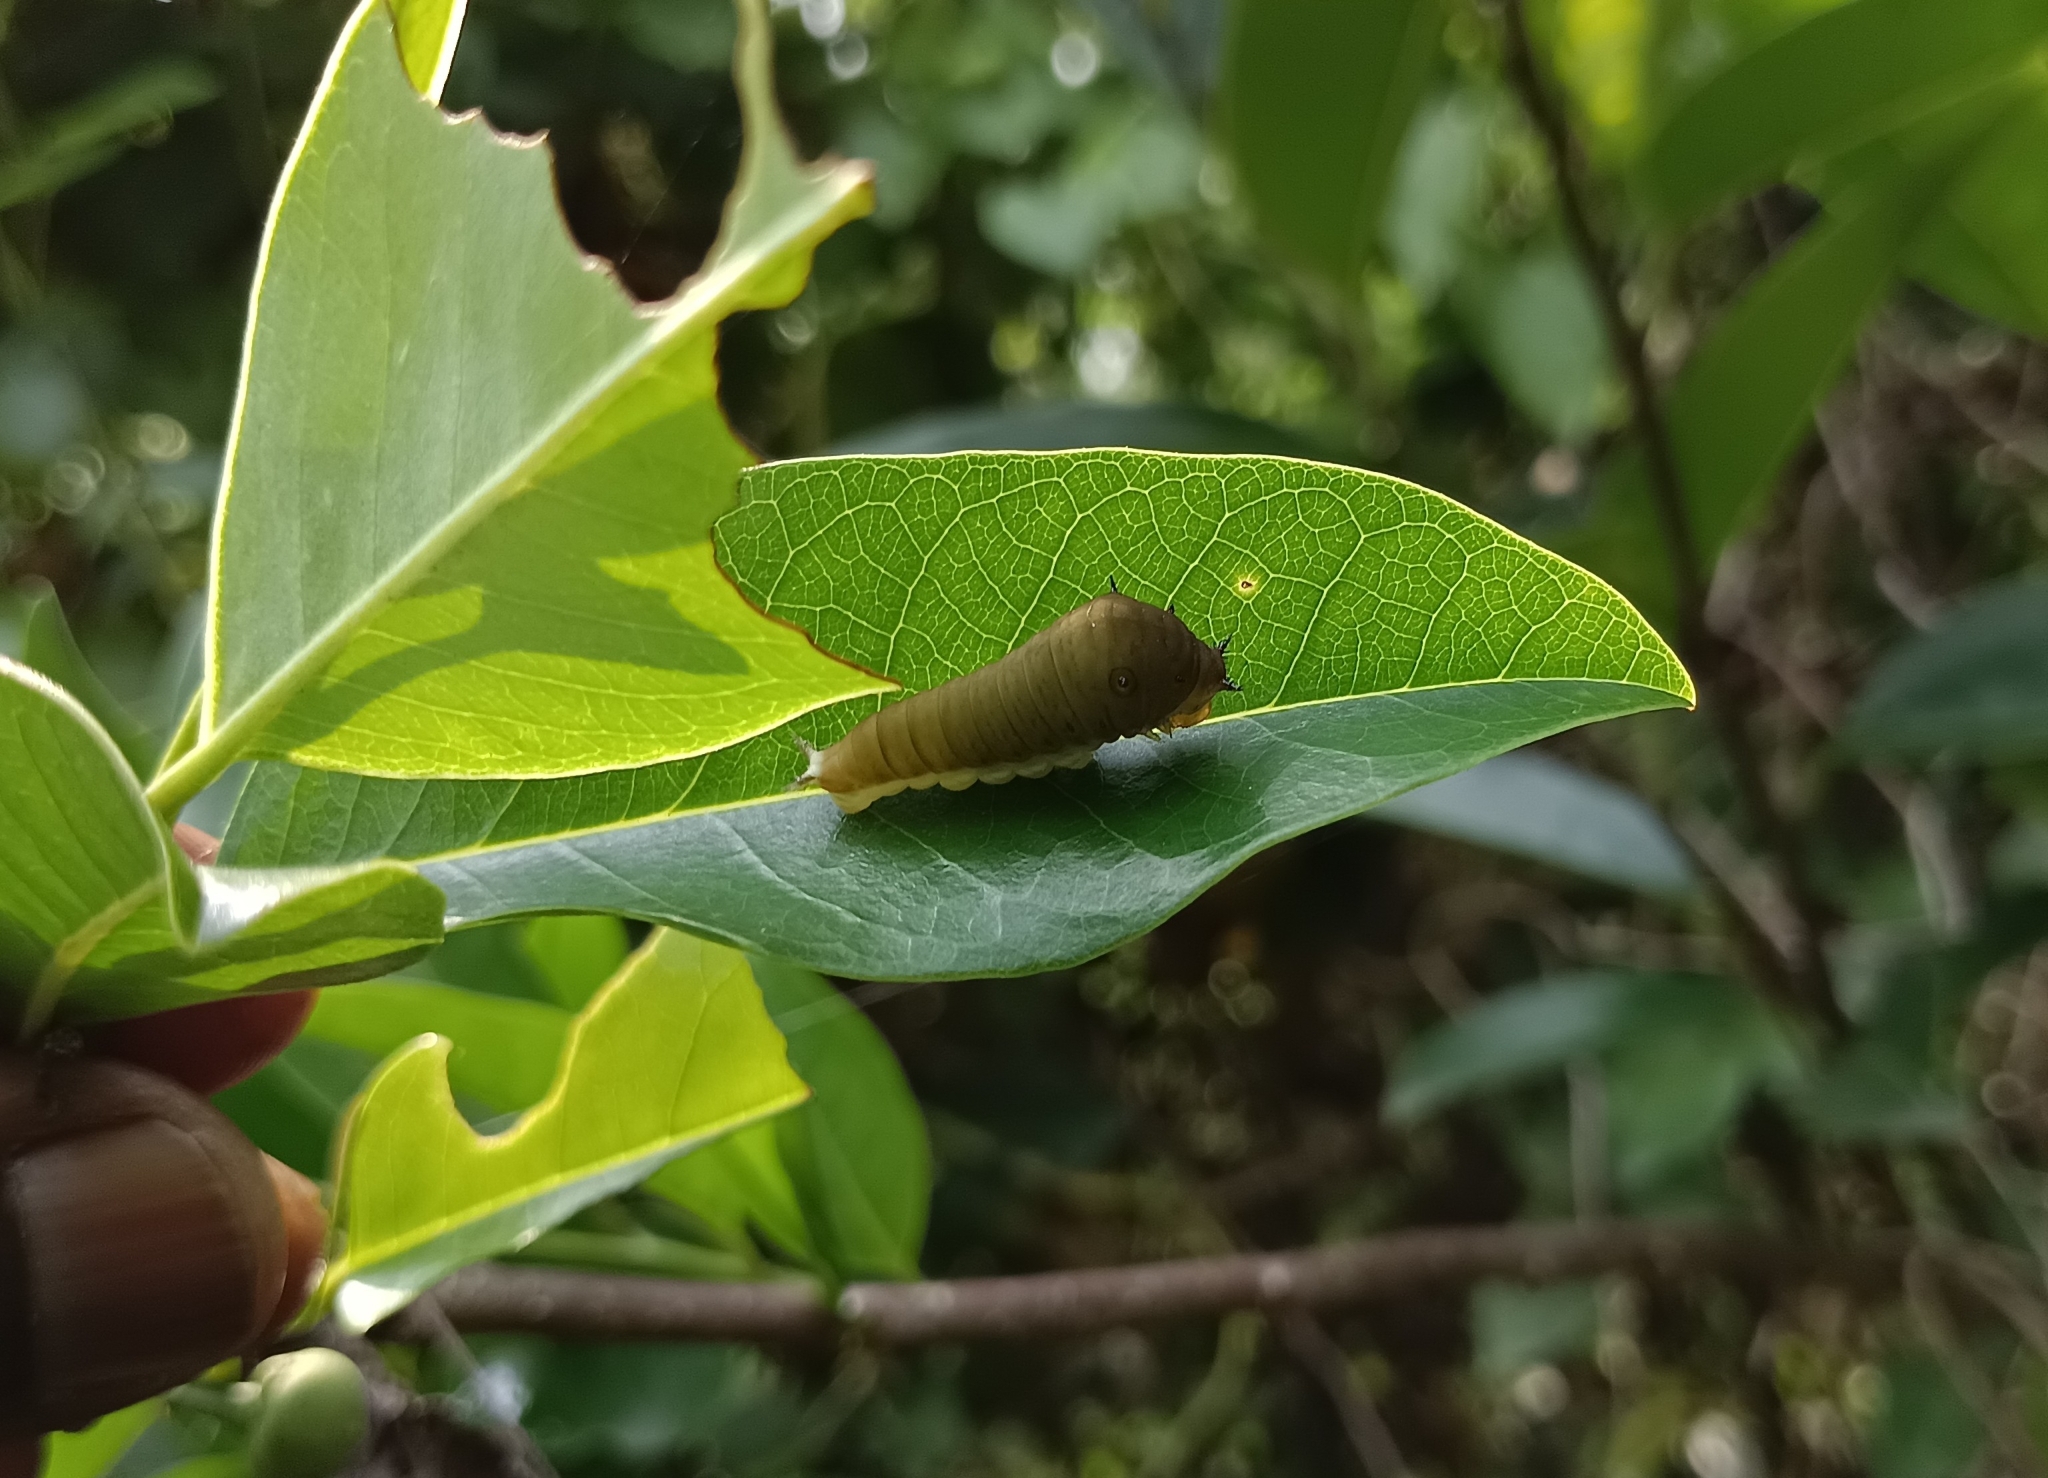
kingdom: Animalia
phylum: Arthropoda
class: Insecta
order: Lepidoptera
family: Papilionidae
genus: Graphium
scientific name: Graphium doson
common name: Common jay
